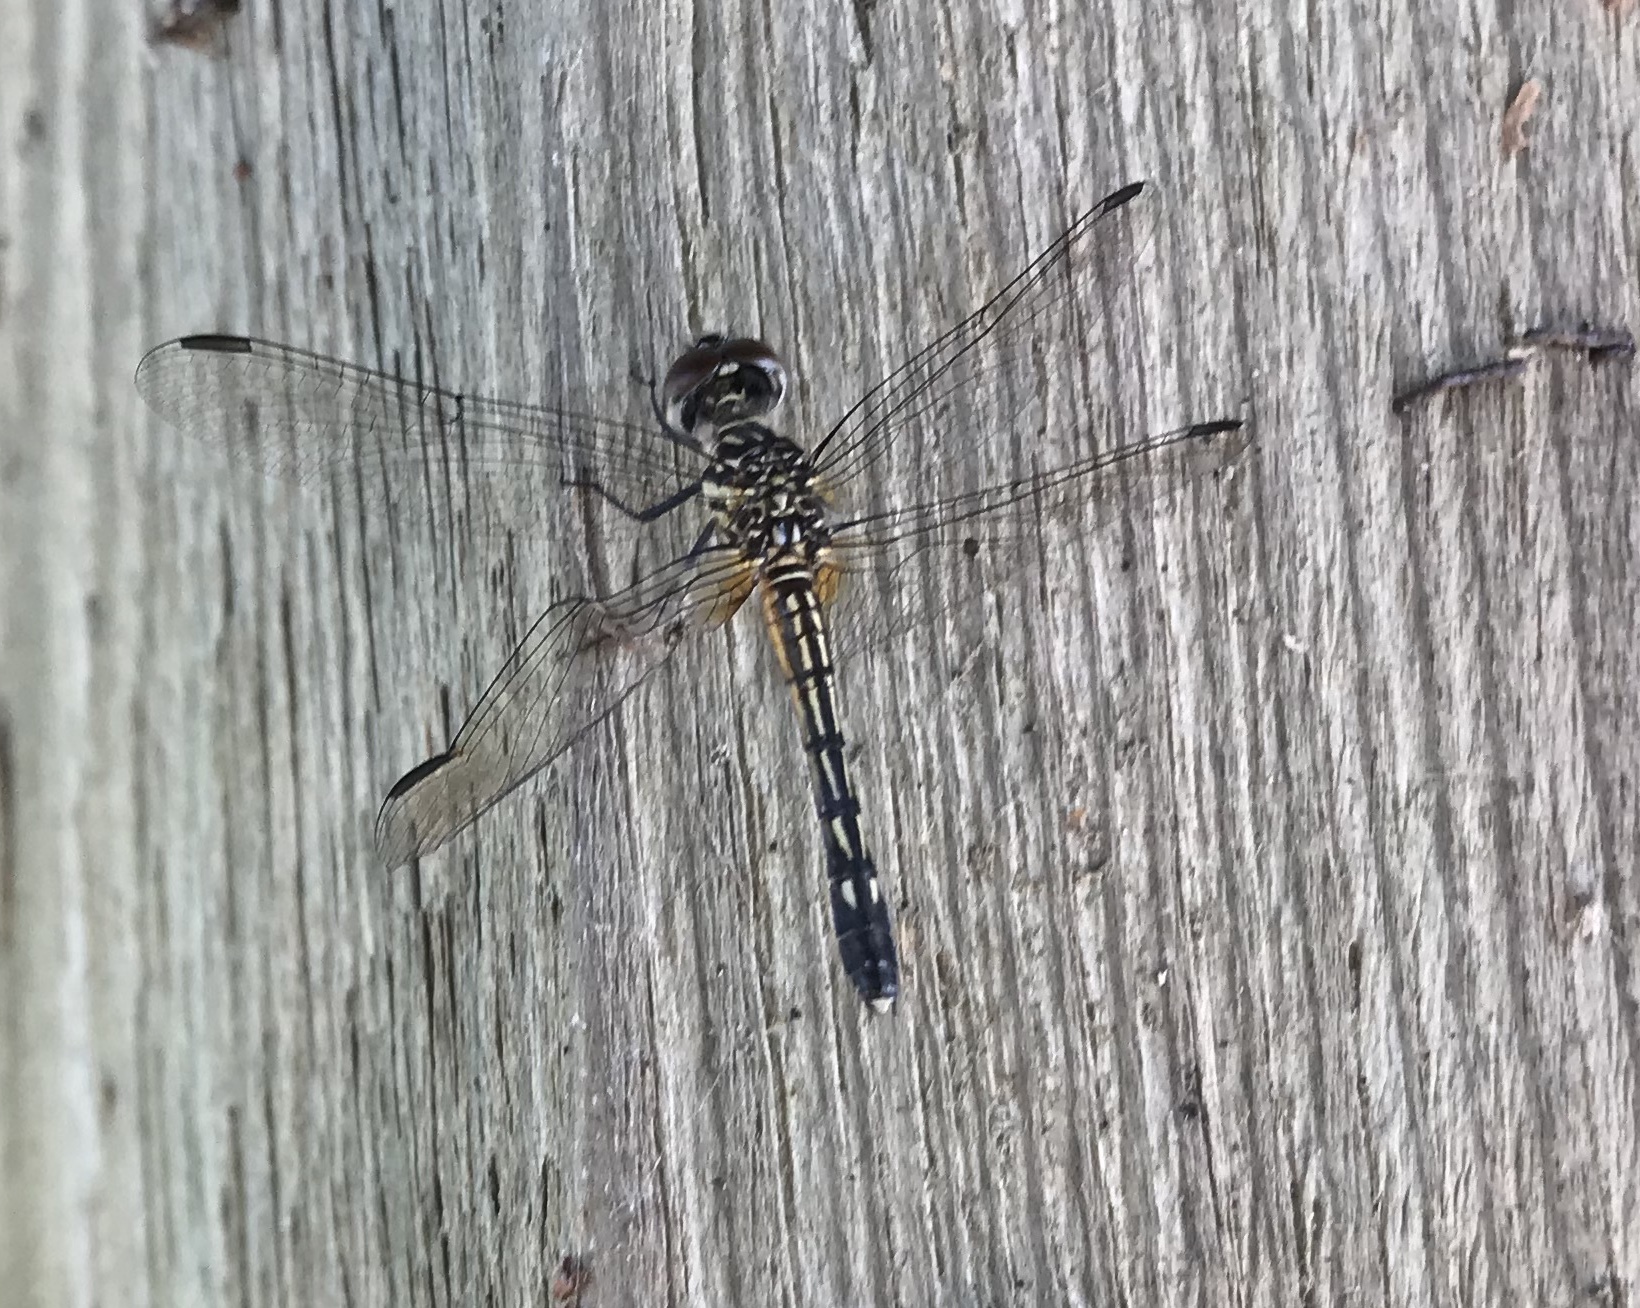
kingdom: Animalia
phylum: Arthropoda
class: Insecta
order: Odonata
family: Libellulidae
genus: Pachydiplax
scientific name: Pachydiplax longipennis
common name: Blue dasher
